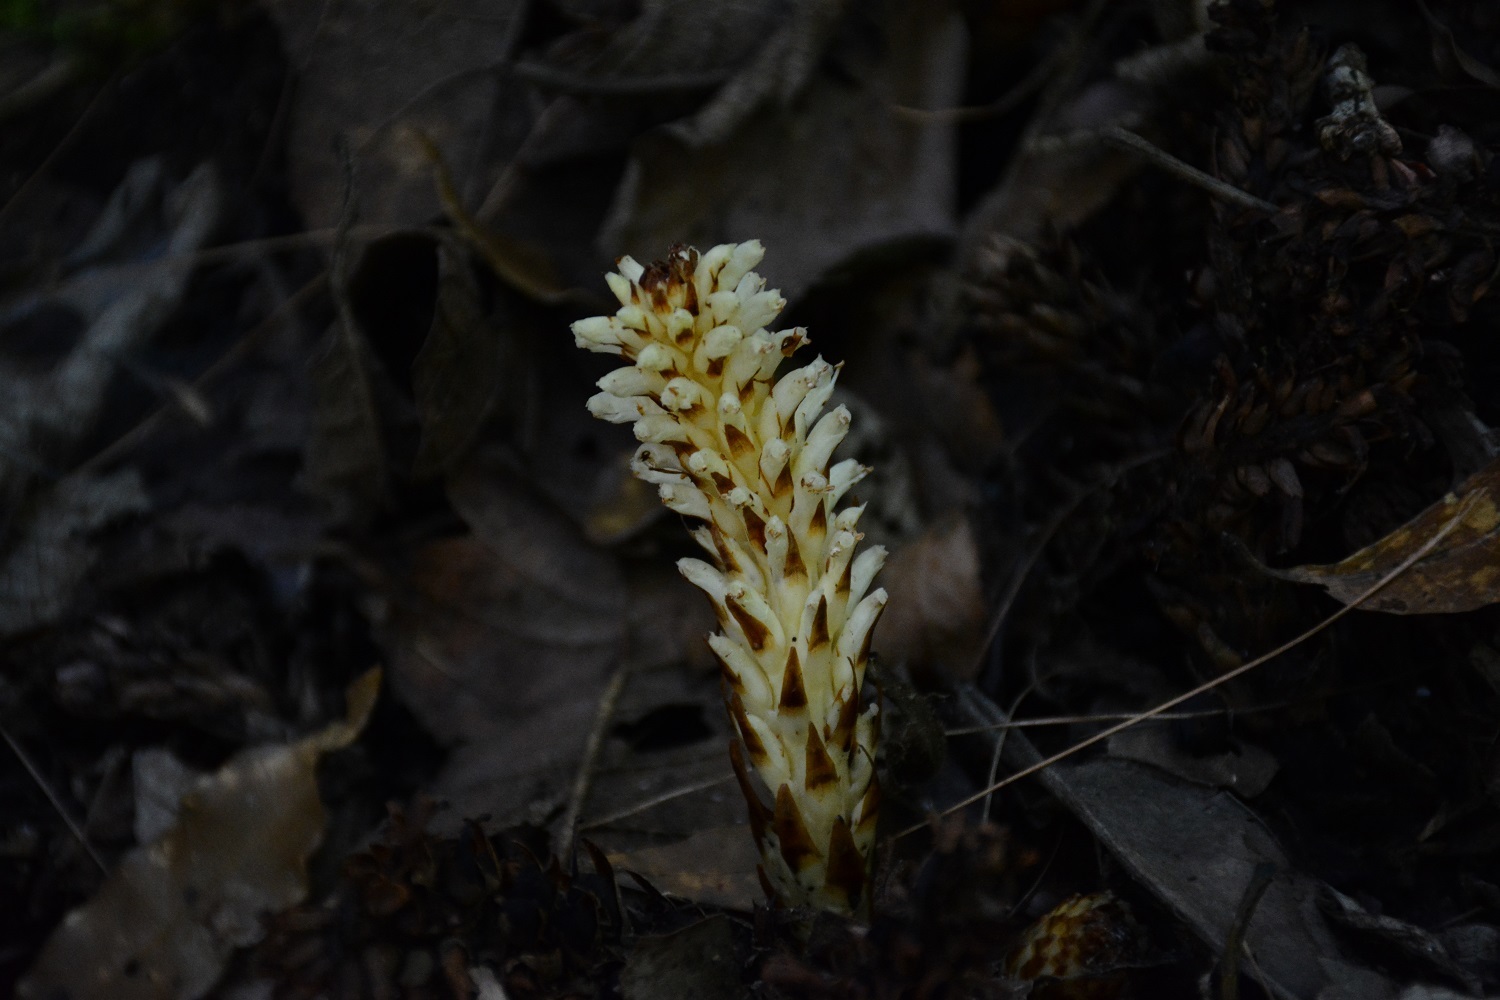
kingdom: Plantae
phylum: Tracheophyta
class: Magnoliopsida
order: Lamiales
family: Orobanchaceae
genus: Conopholis
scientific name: Conopholis alpina
